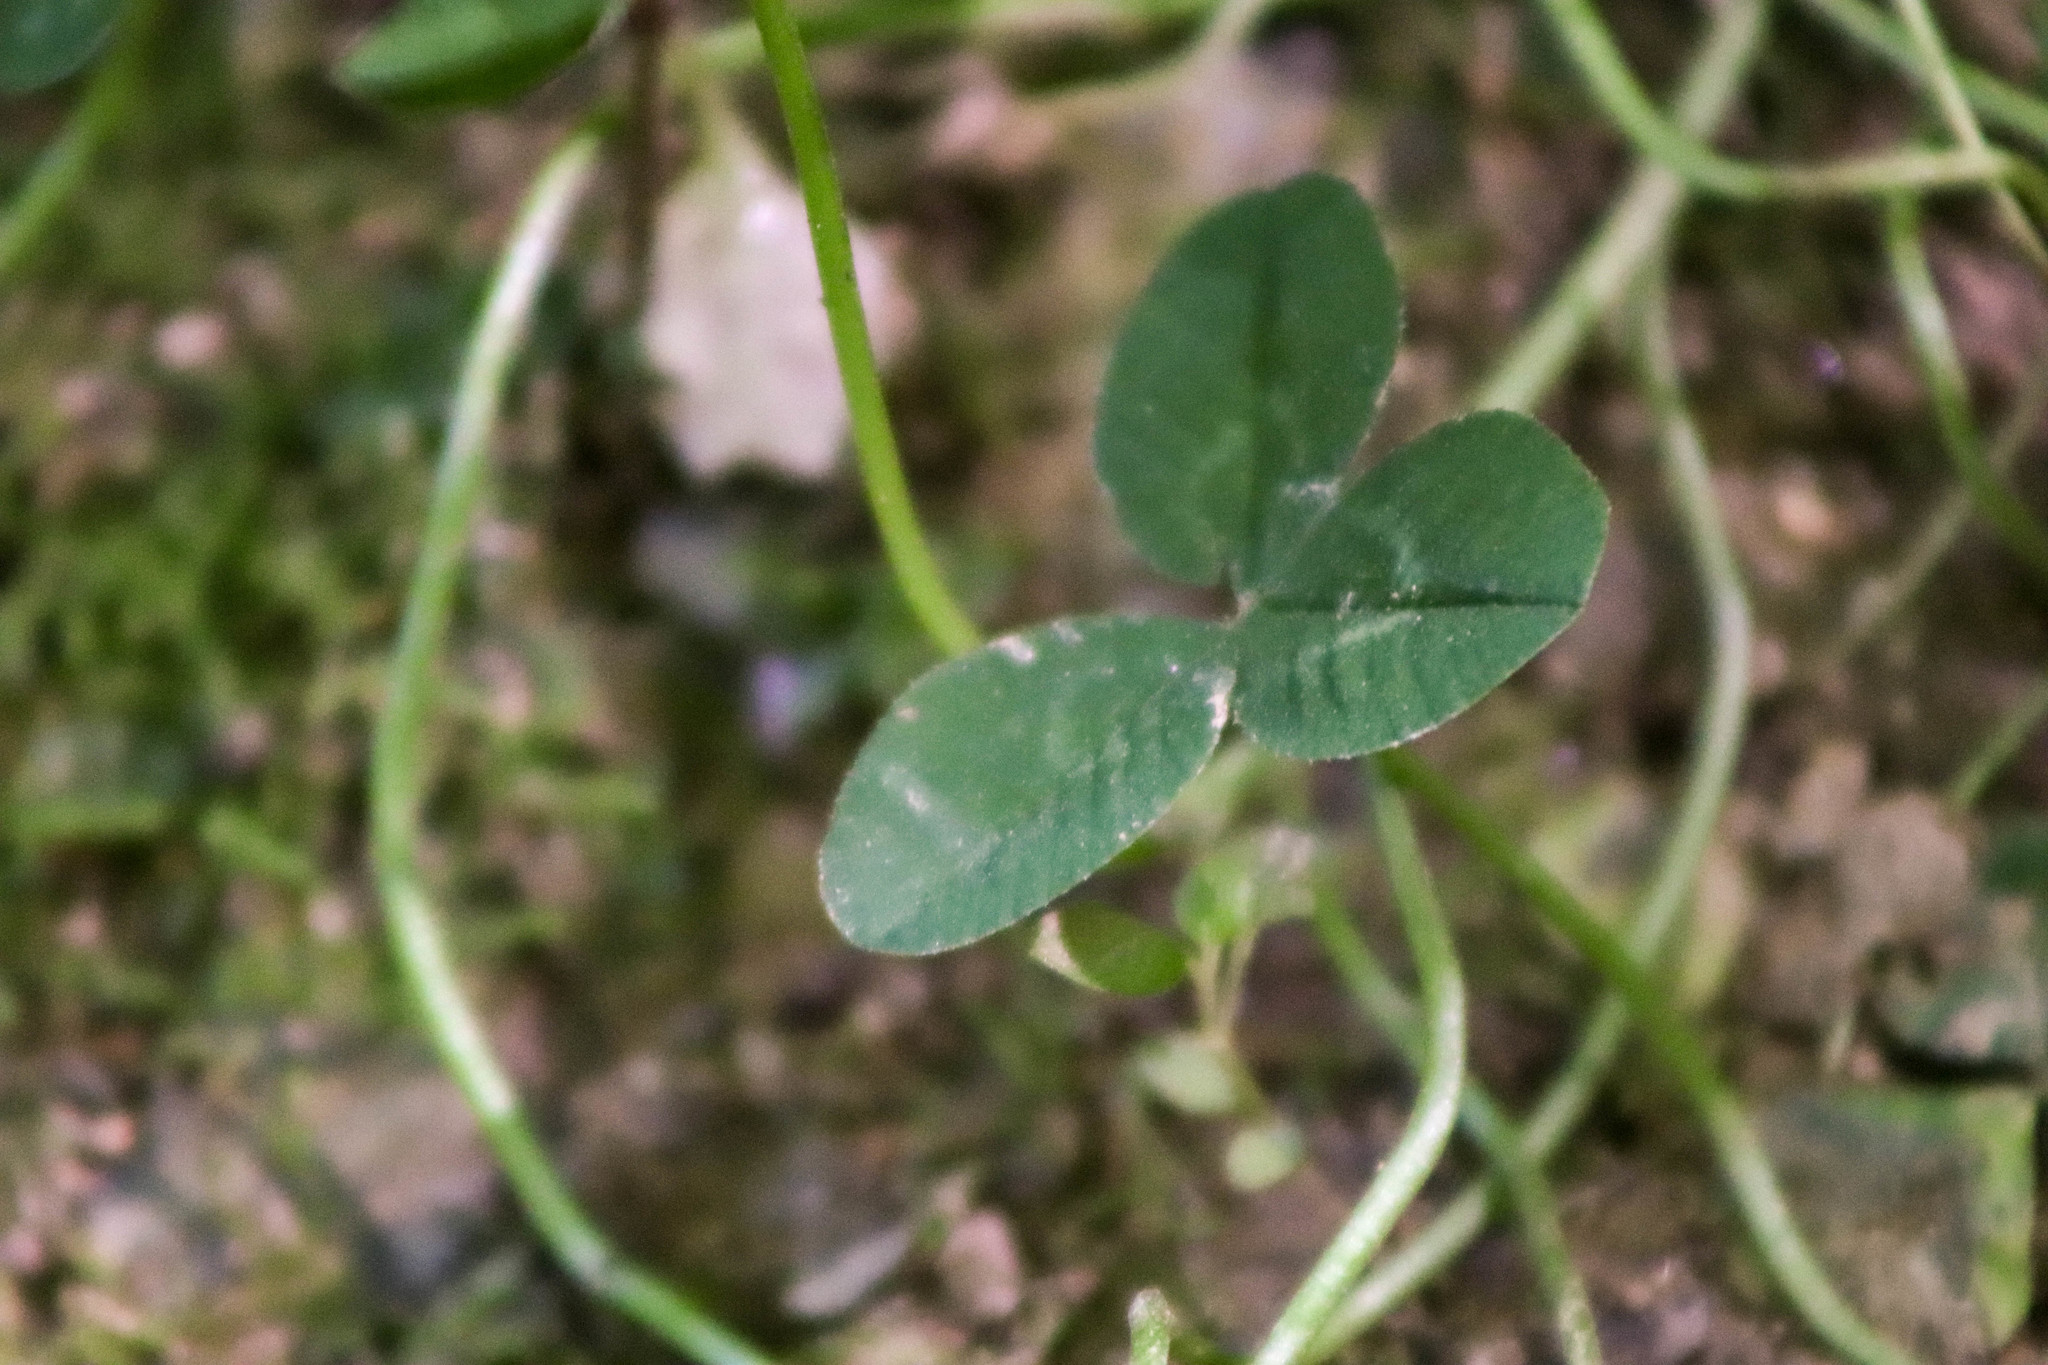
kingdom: Plantae
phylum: Tracheophyta
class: Magnoliopsida
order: Fabales
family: Fabaceae
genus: Trifolium
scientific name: Trifolium repens
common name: White clover
